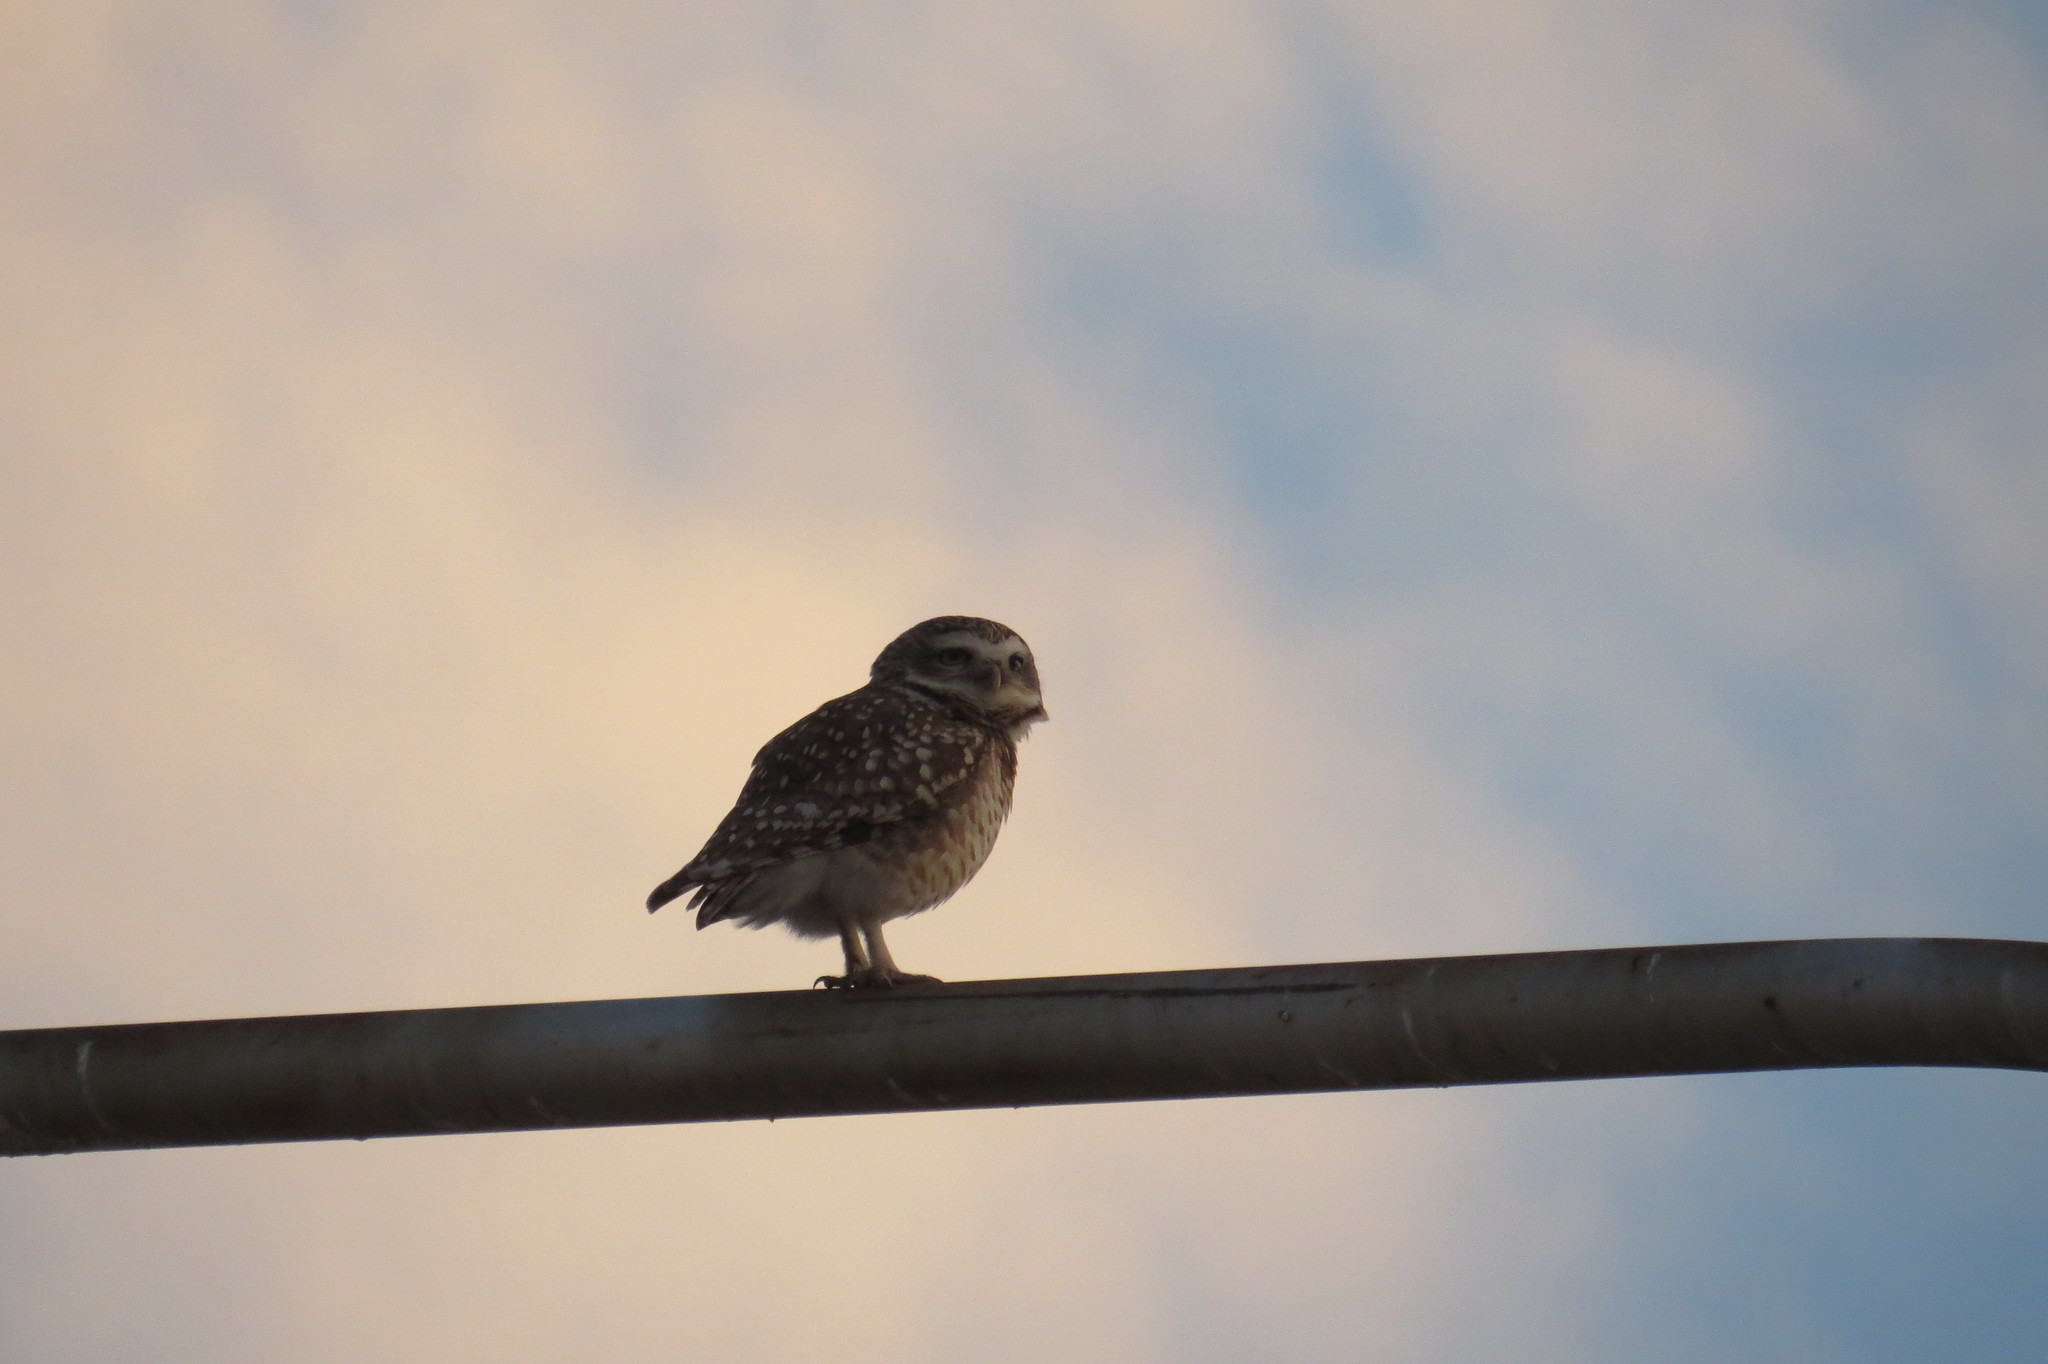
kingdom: Animalia
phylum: Chordata
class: Aves
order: Strigiformes
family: Strigidae
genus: Athene
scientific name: Athene cunicularia
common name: Burrowing owl
